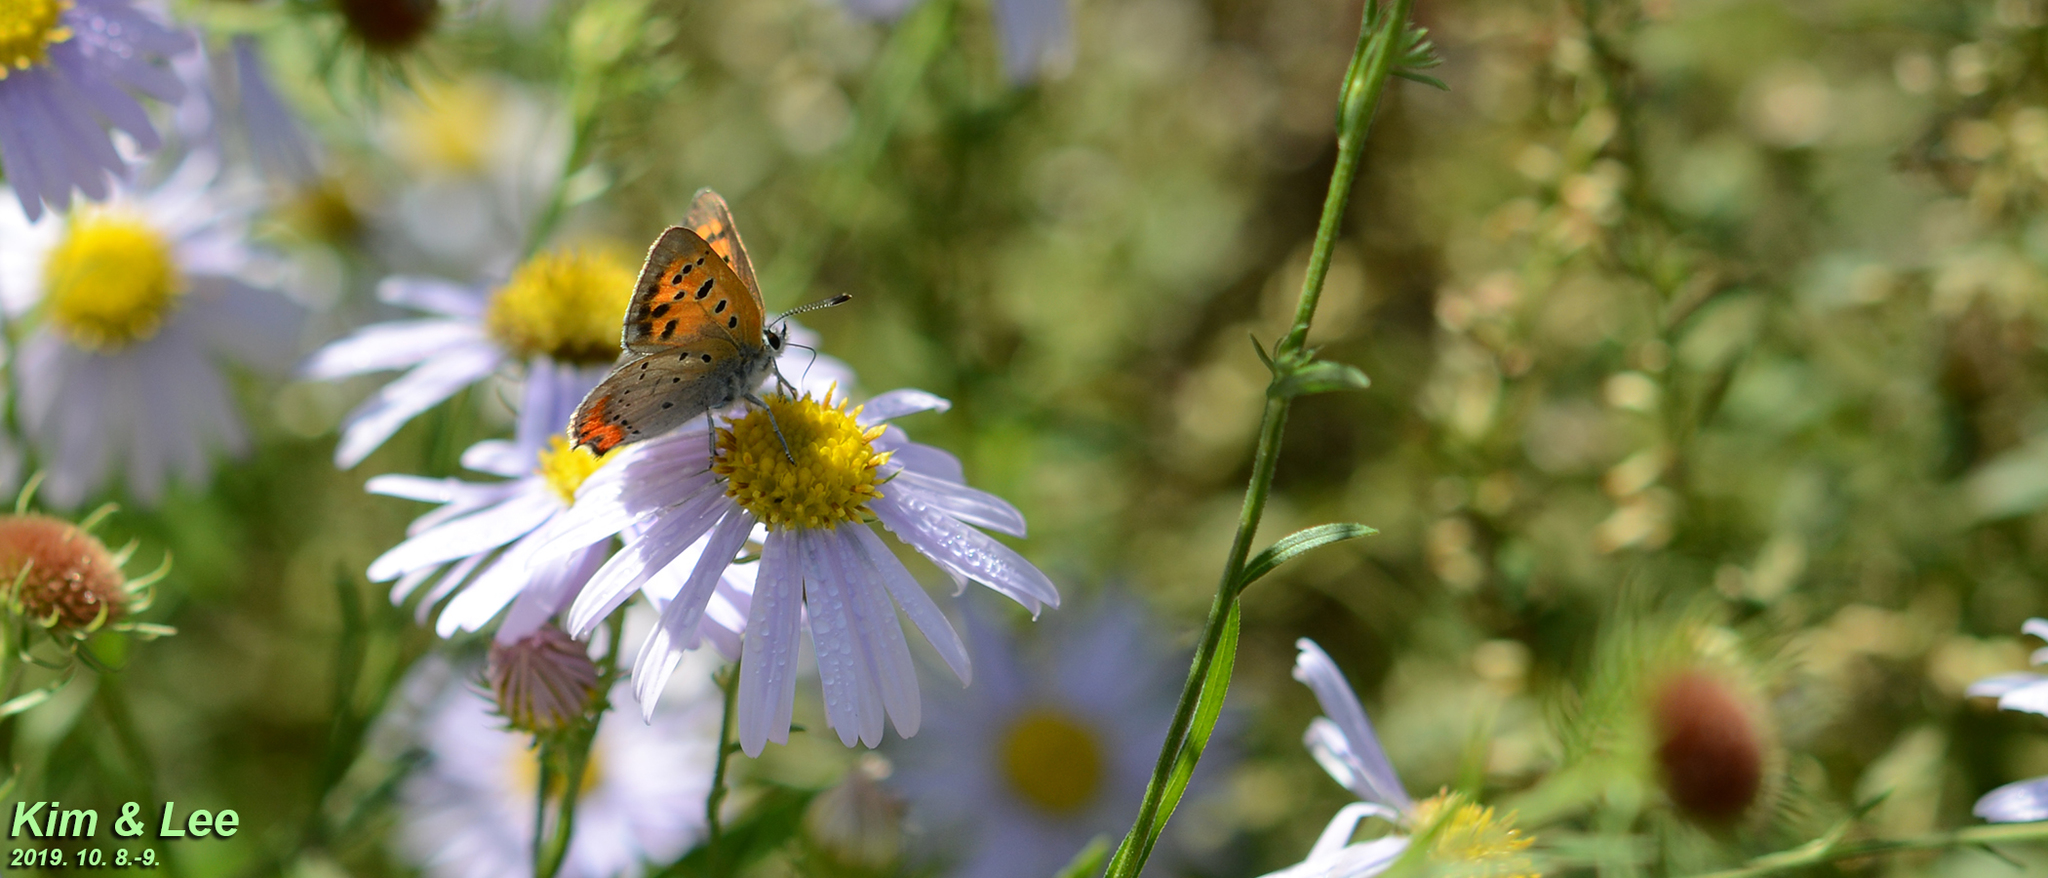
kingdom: Animalia
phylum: Arthropoda
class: Insecta
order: Lepidoptera
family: Lycaenidae
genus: Lycaena
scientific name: Lycaena phlaeas
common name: Small copper
